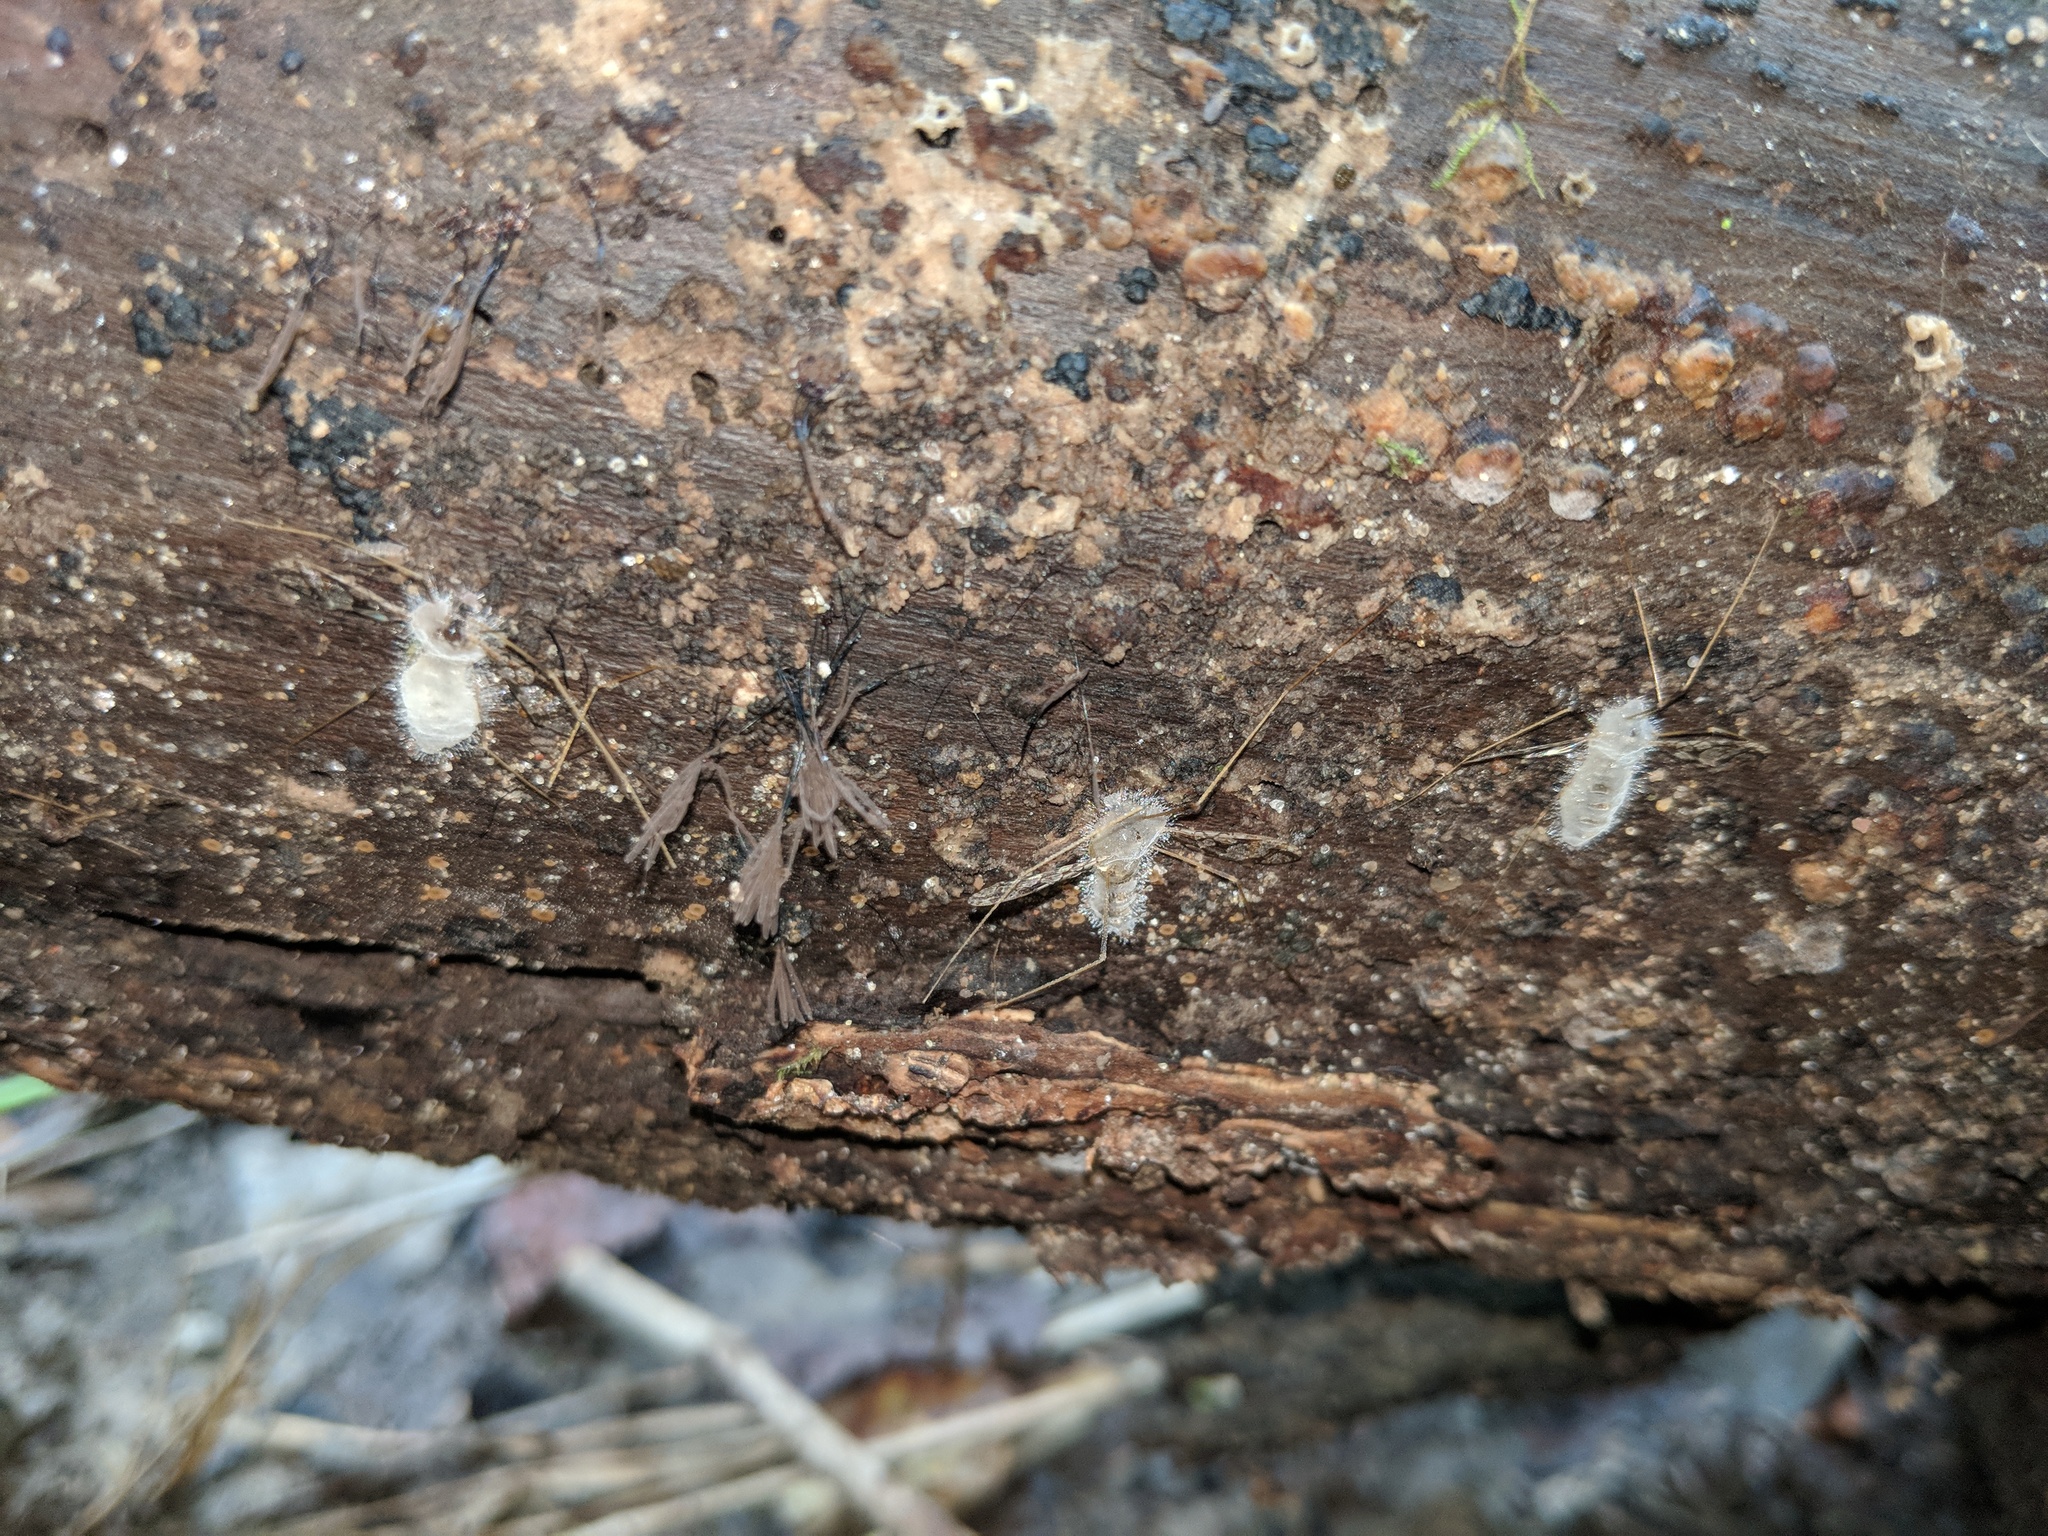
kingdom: Fungi
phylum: Entomophthoromycota
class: Entomophthoromycetes
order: Entomophthorales
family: Entomophthoraceae
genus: Erynia
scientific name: Erynia sepulchralis
